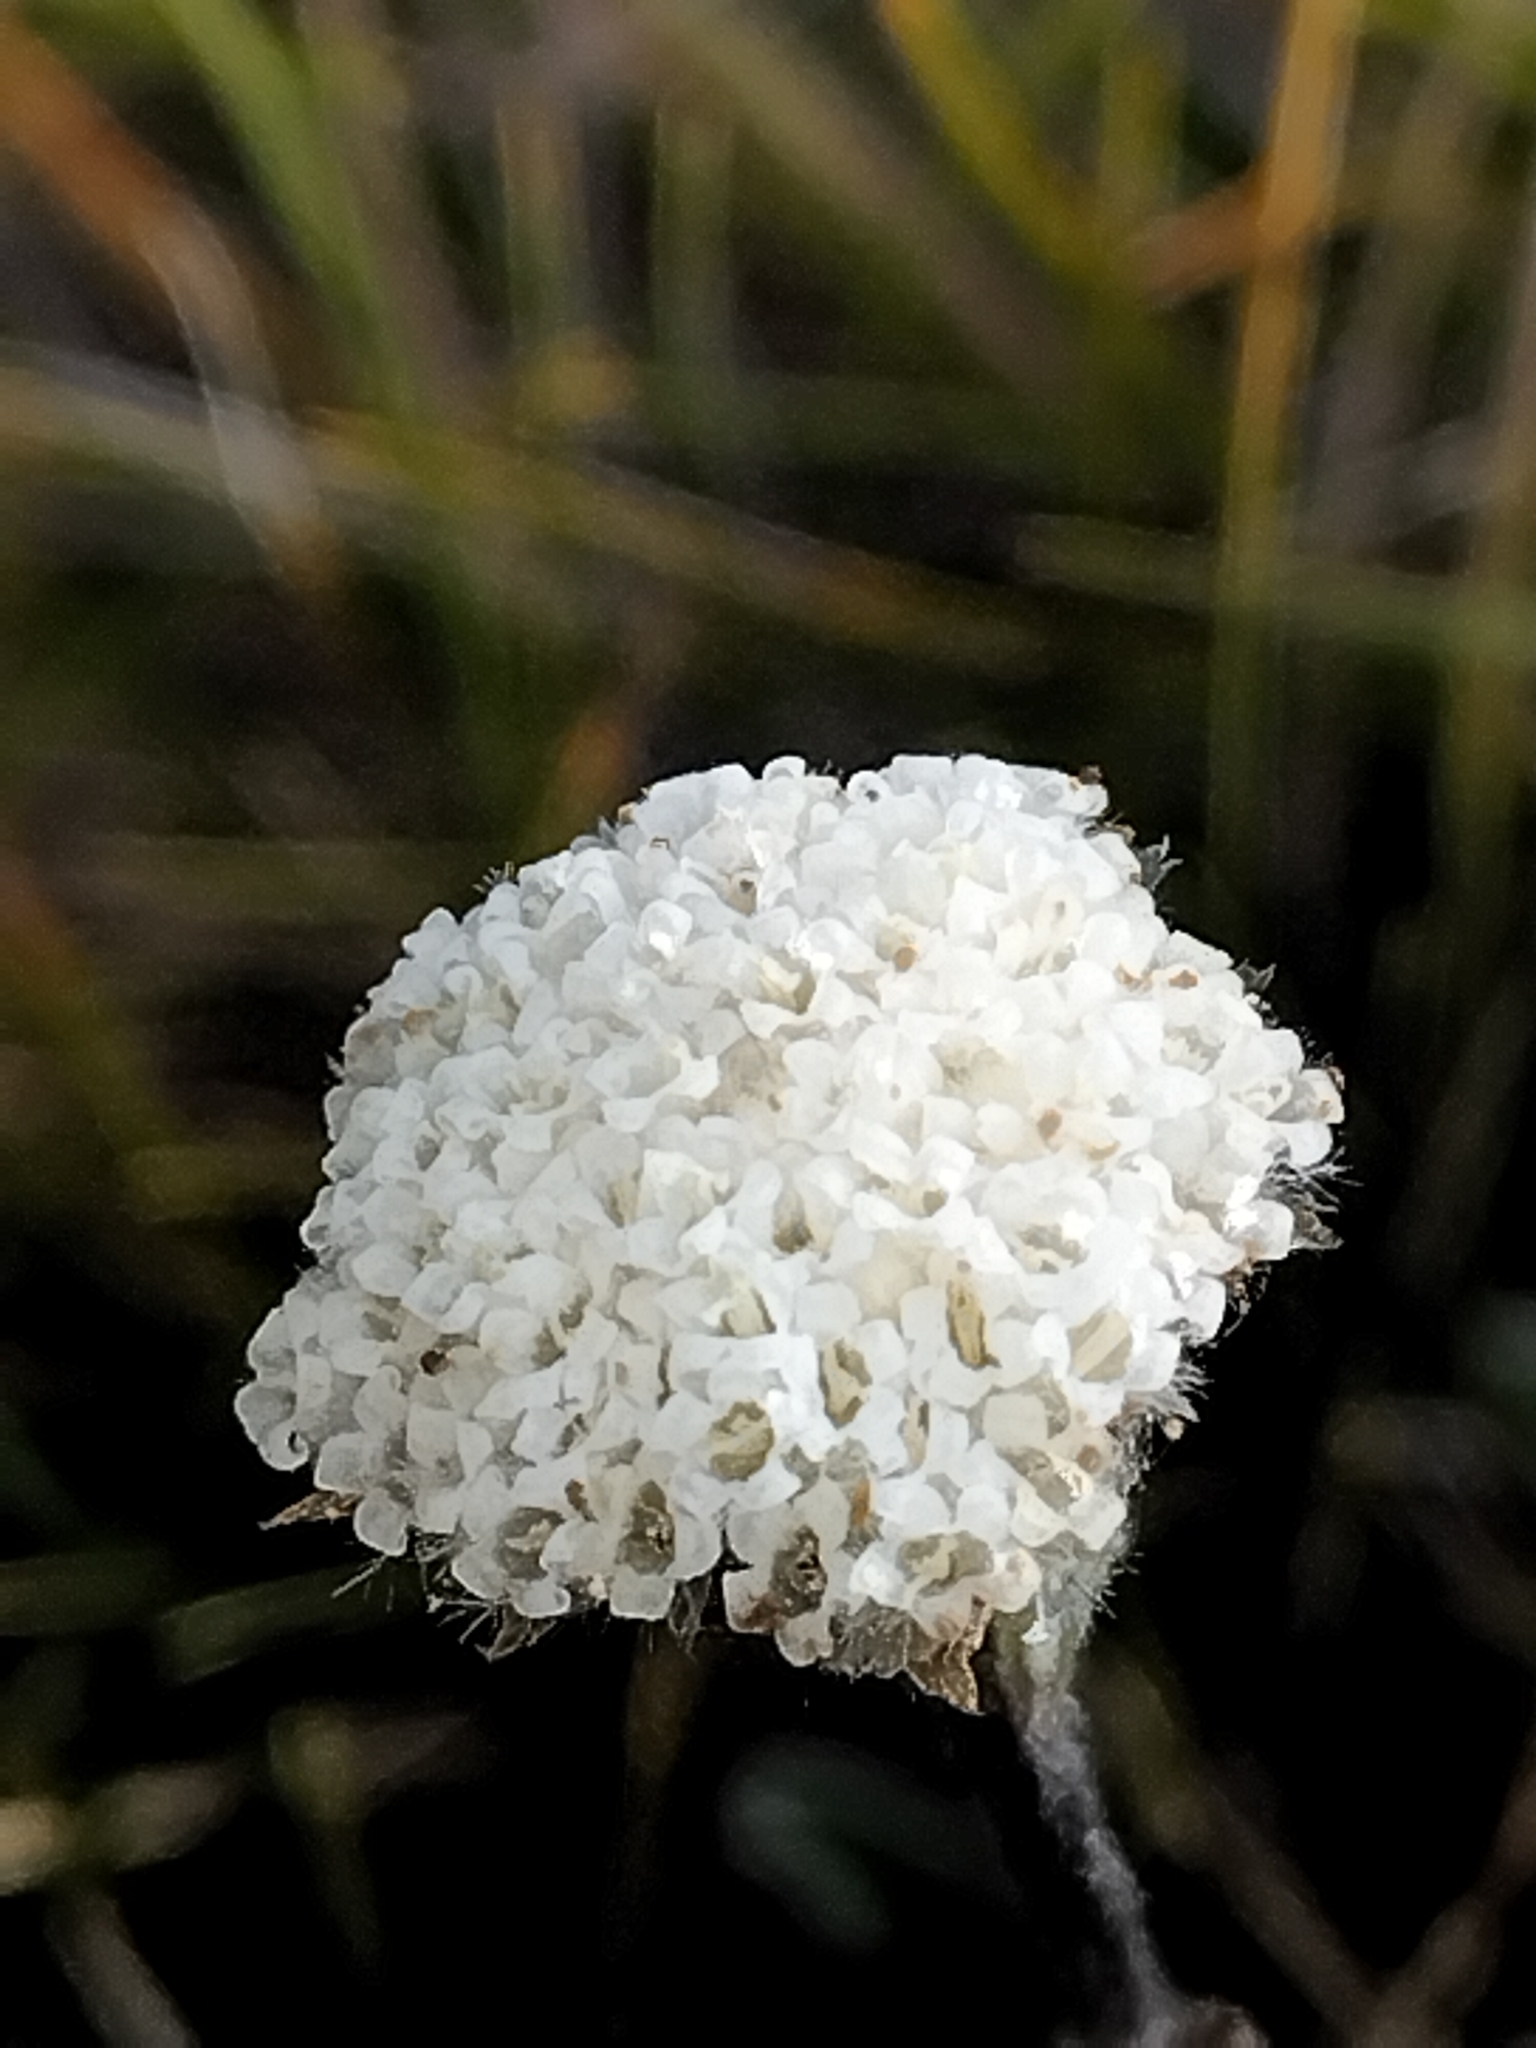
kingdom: Plantae
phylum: Tracheophyta
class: Magnoliopsida
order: Asterales
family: Asteraceae
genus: Craspedia
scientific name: Craspedia uniflora
